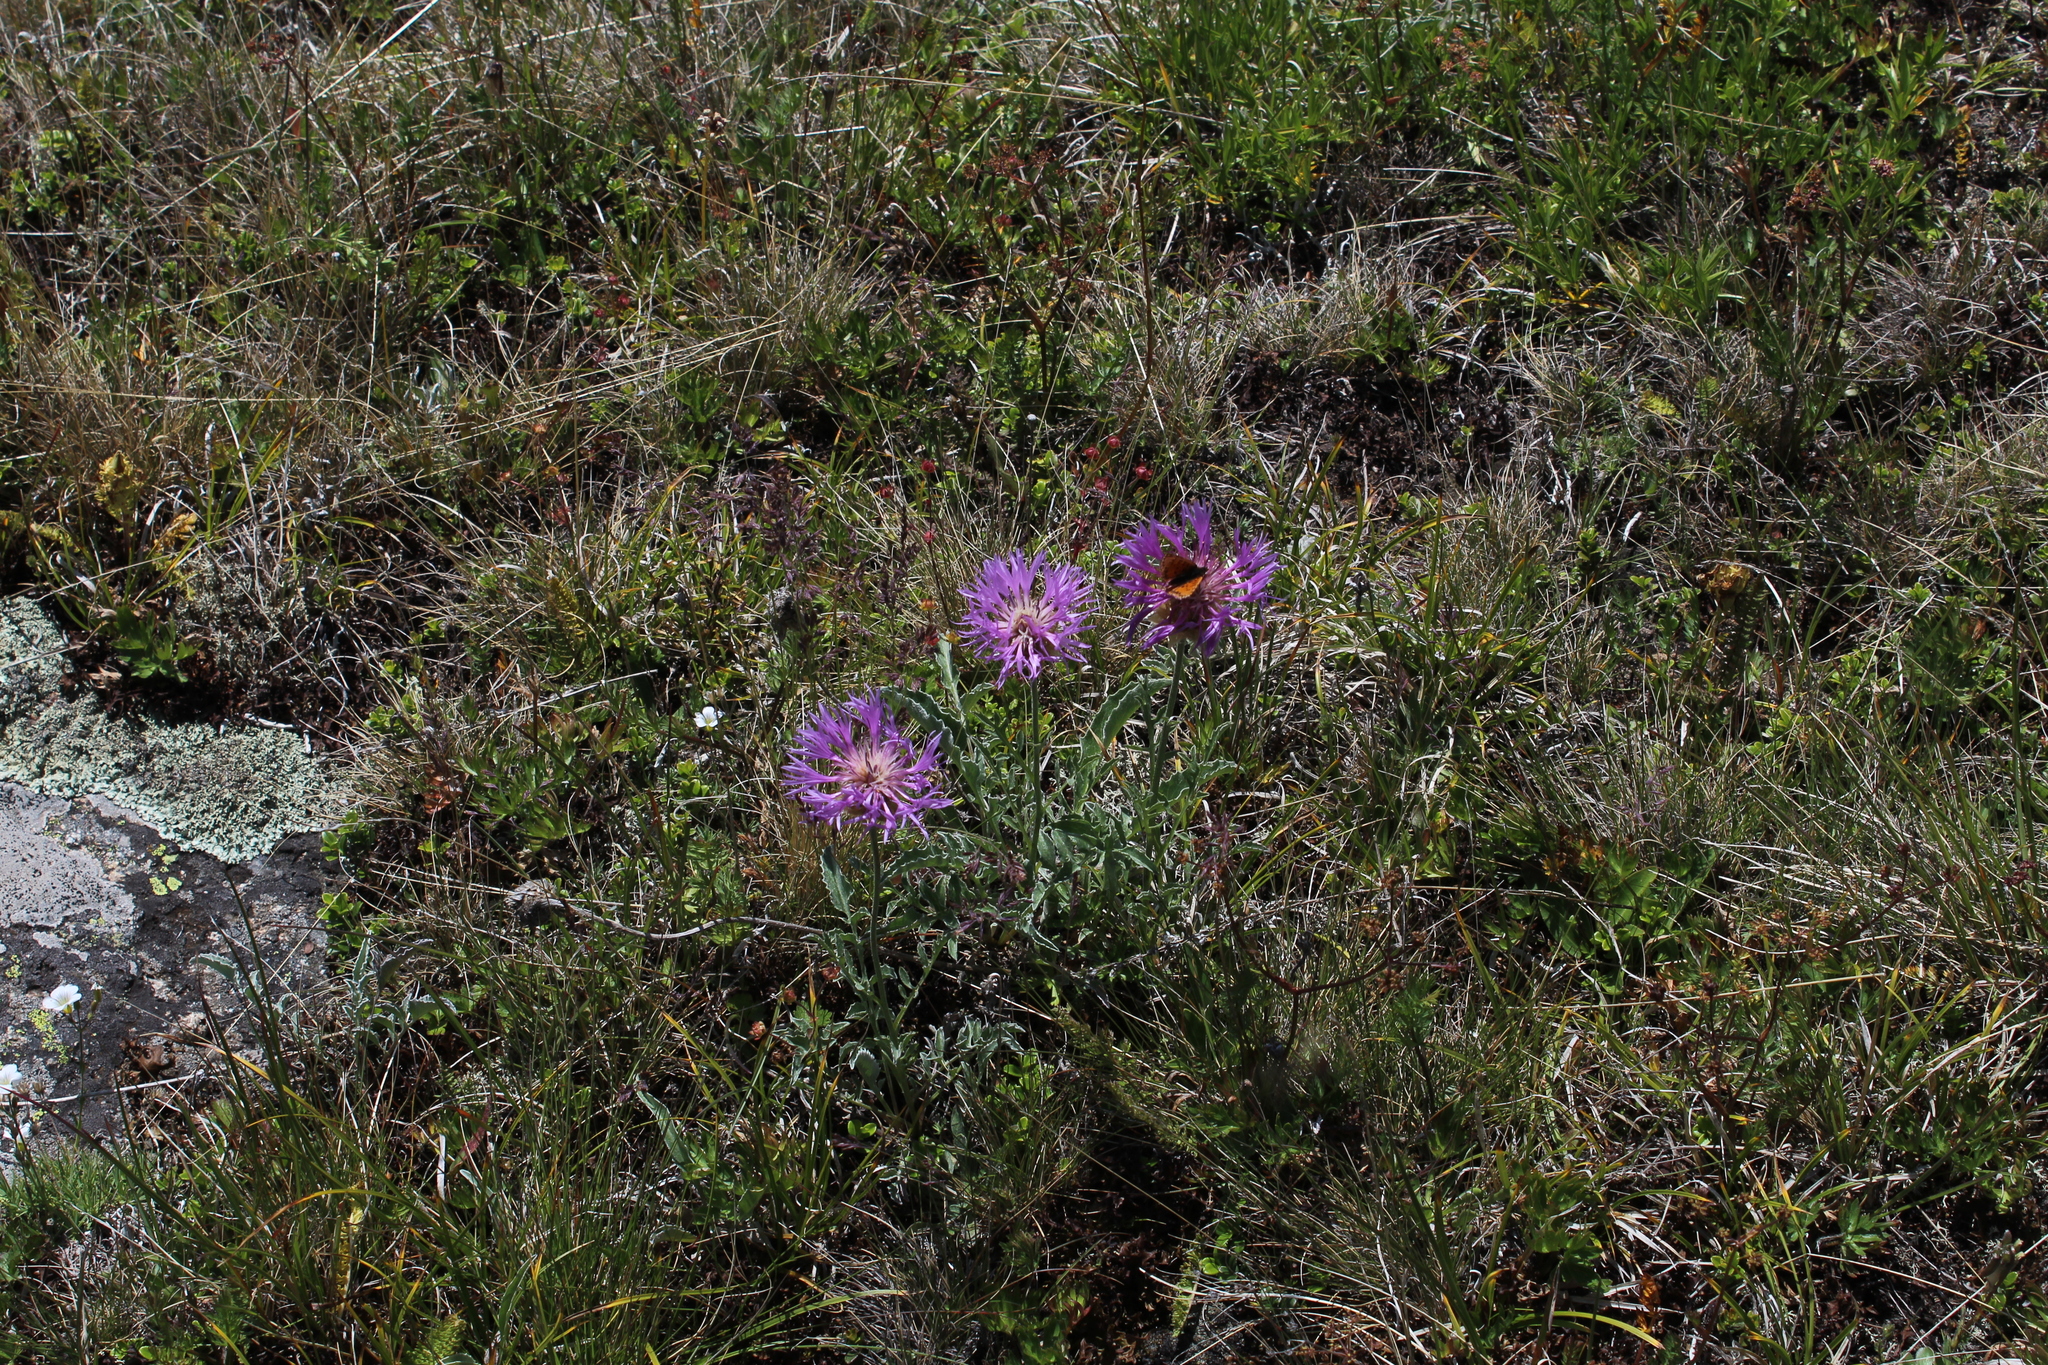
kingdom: Plantae
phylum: Tracheophyta
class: Magnoliopsida
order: Asterales
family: Asteraceae
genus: Psephellus
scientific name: Psephellus caucasicus
